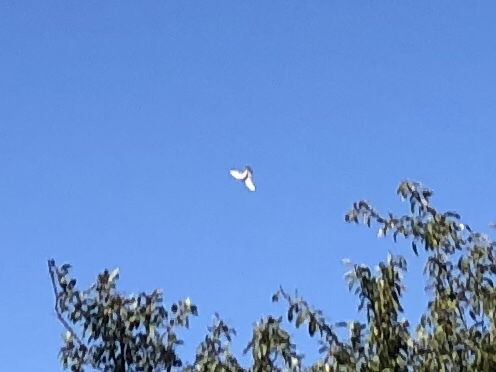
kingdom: Animalia
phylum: Chordata
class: Aves
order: Falconiformes
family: Falconidae
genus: Falco
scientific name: Falco tinnunculus
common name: Common kestrel
